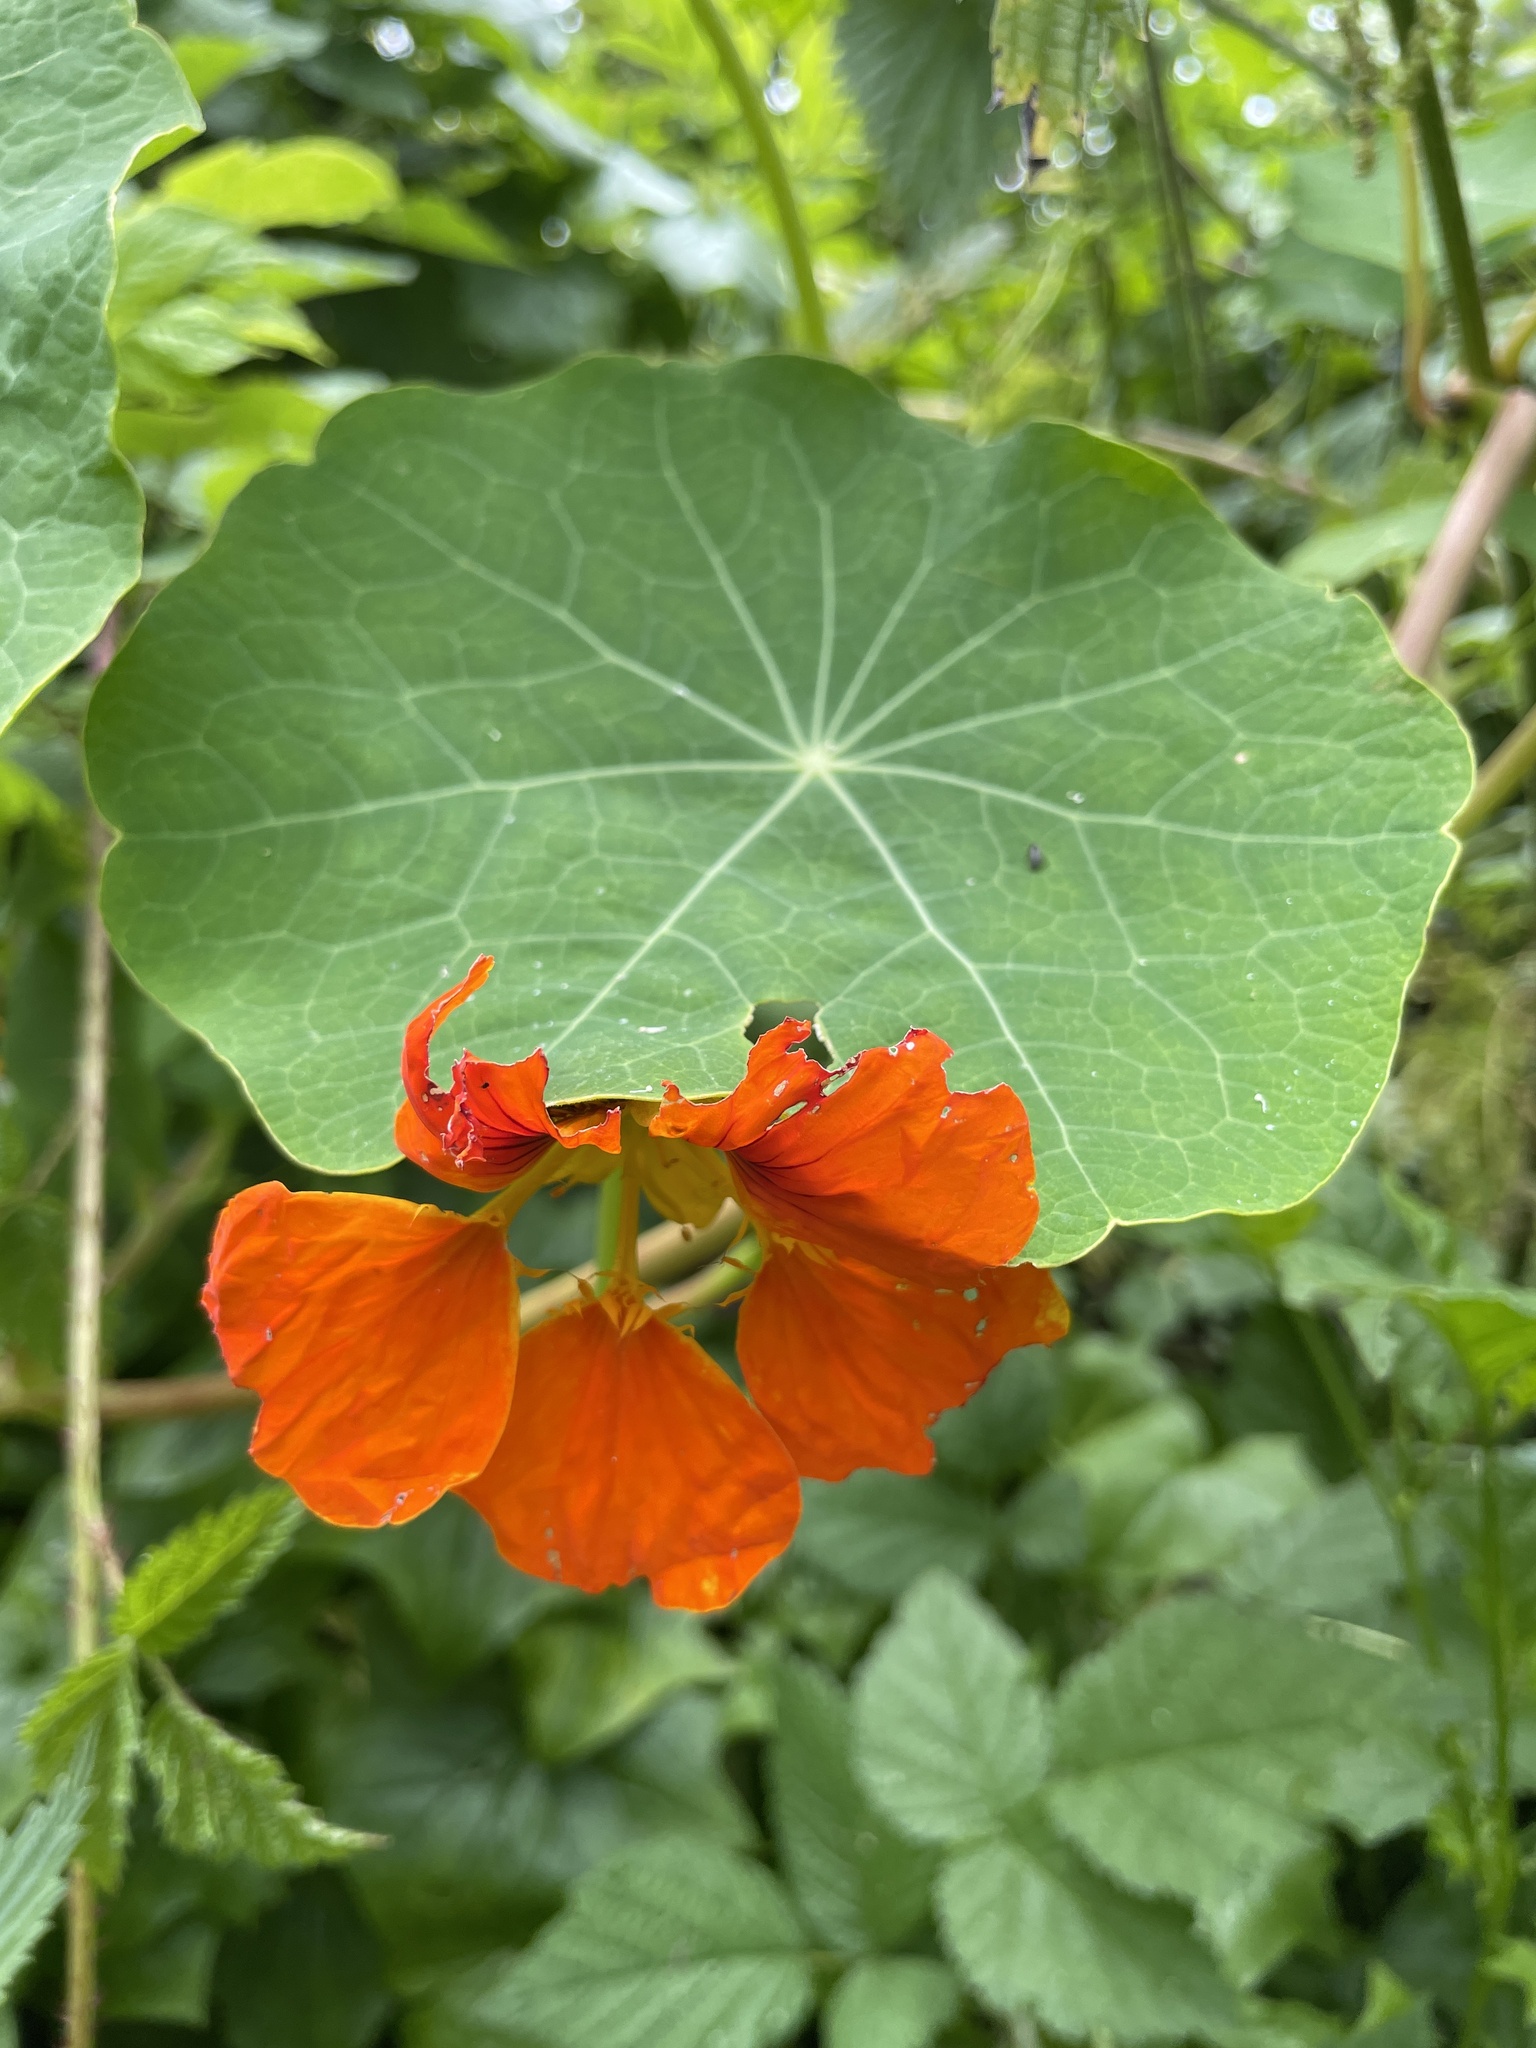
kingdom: Plantae
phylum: Tracheophyta
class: Magnoliopsida
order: Brassicales
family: Tropaeolaceae
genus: Tropaeolum
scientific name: Tropaeolum majus
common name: Nasturtium
